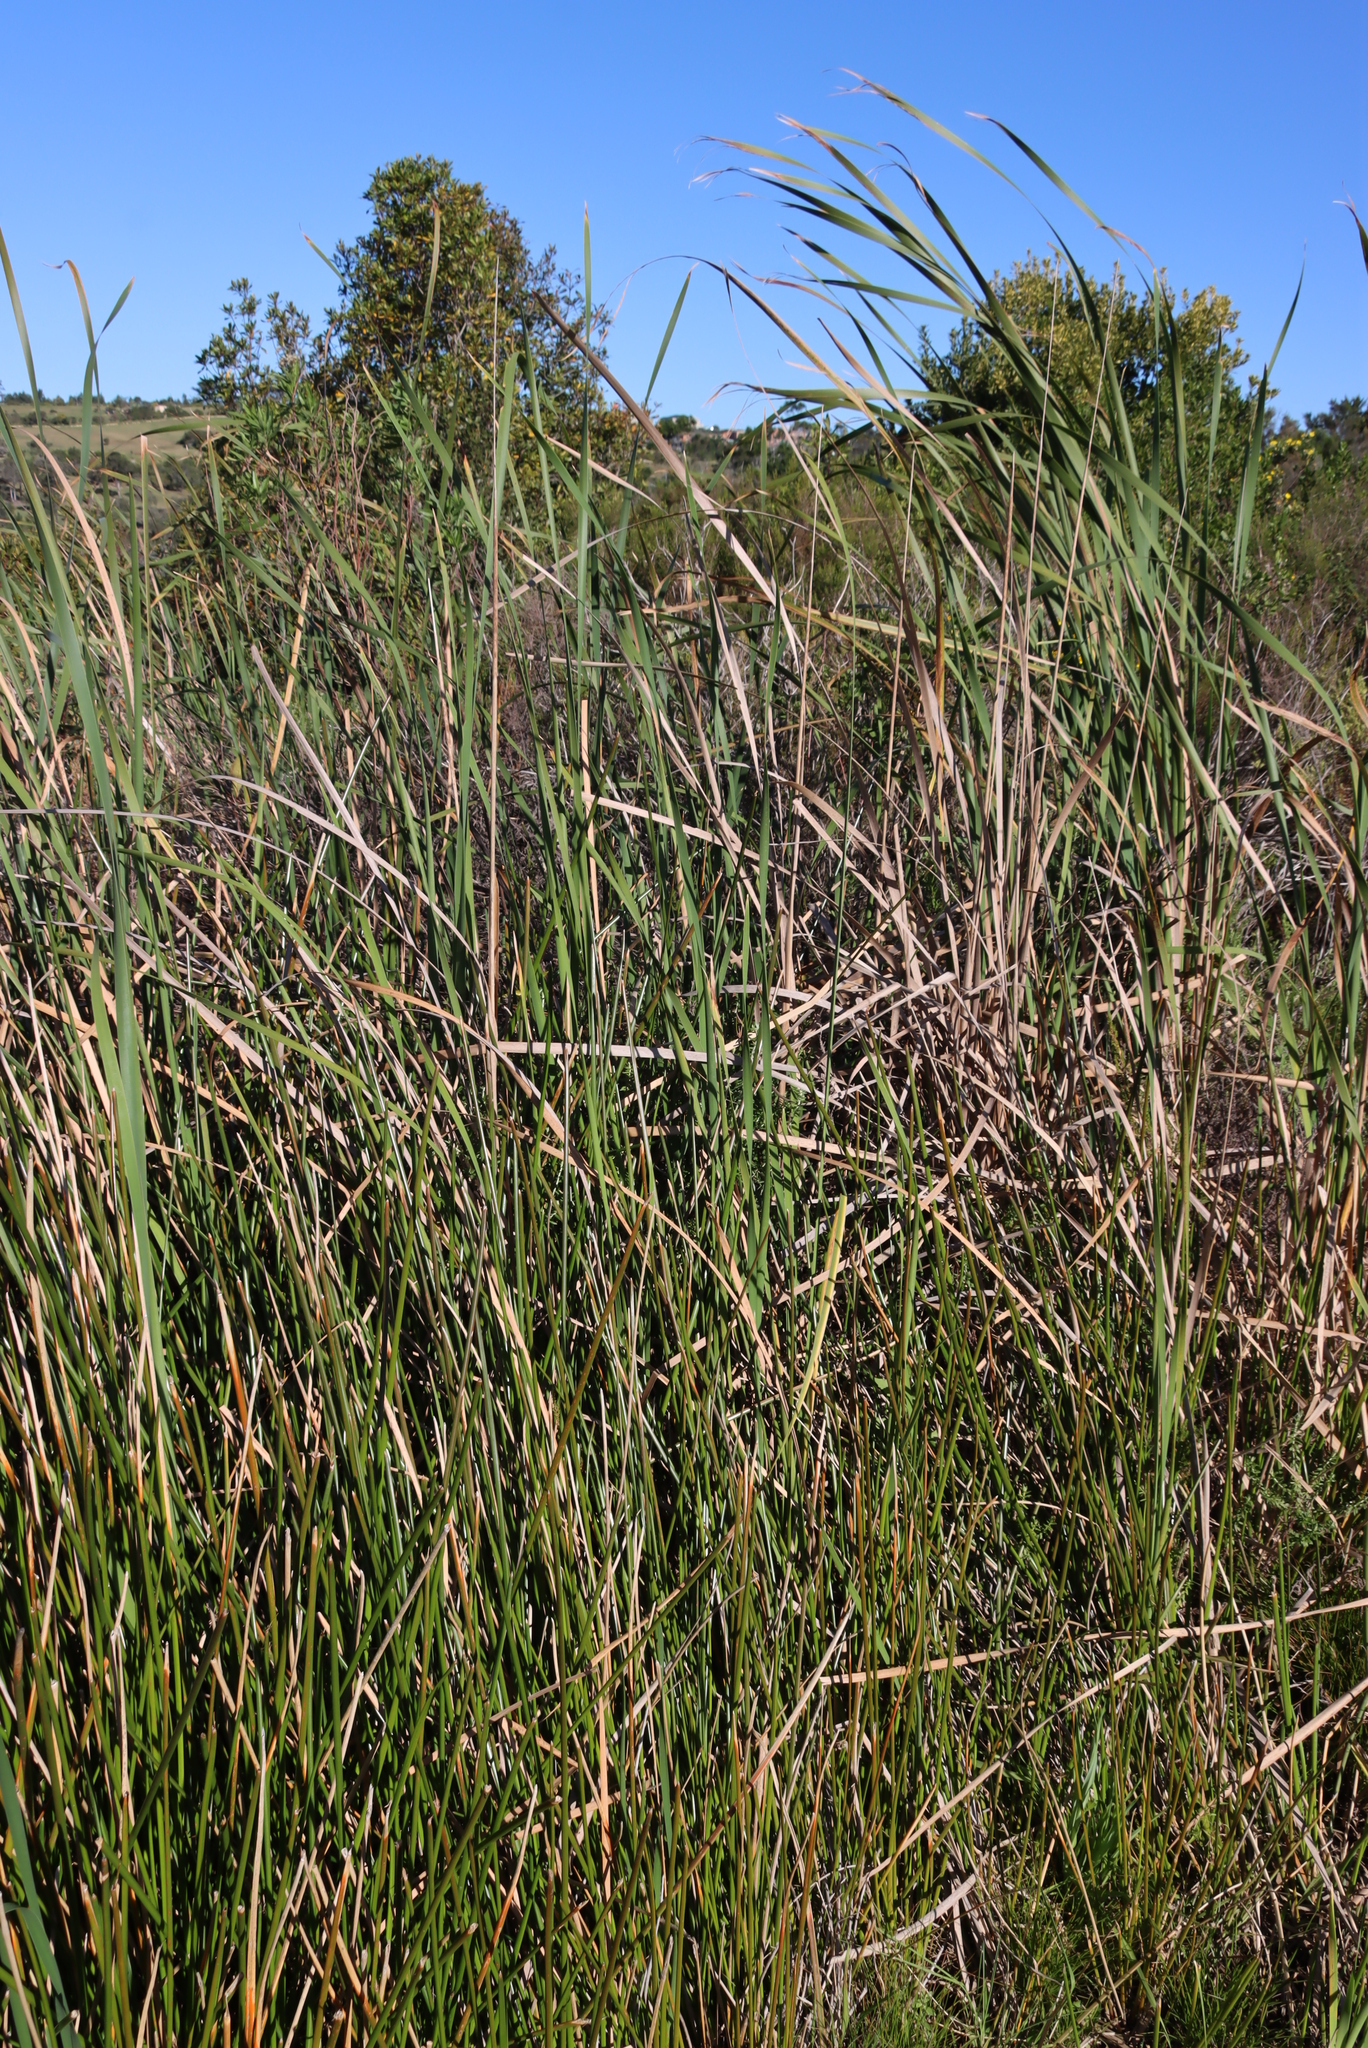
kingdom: Plantae
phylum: Tracheophyta
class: Liliopsida
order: Poales
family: Typhaceae
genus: Typha
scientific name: Typha capensis
